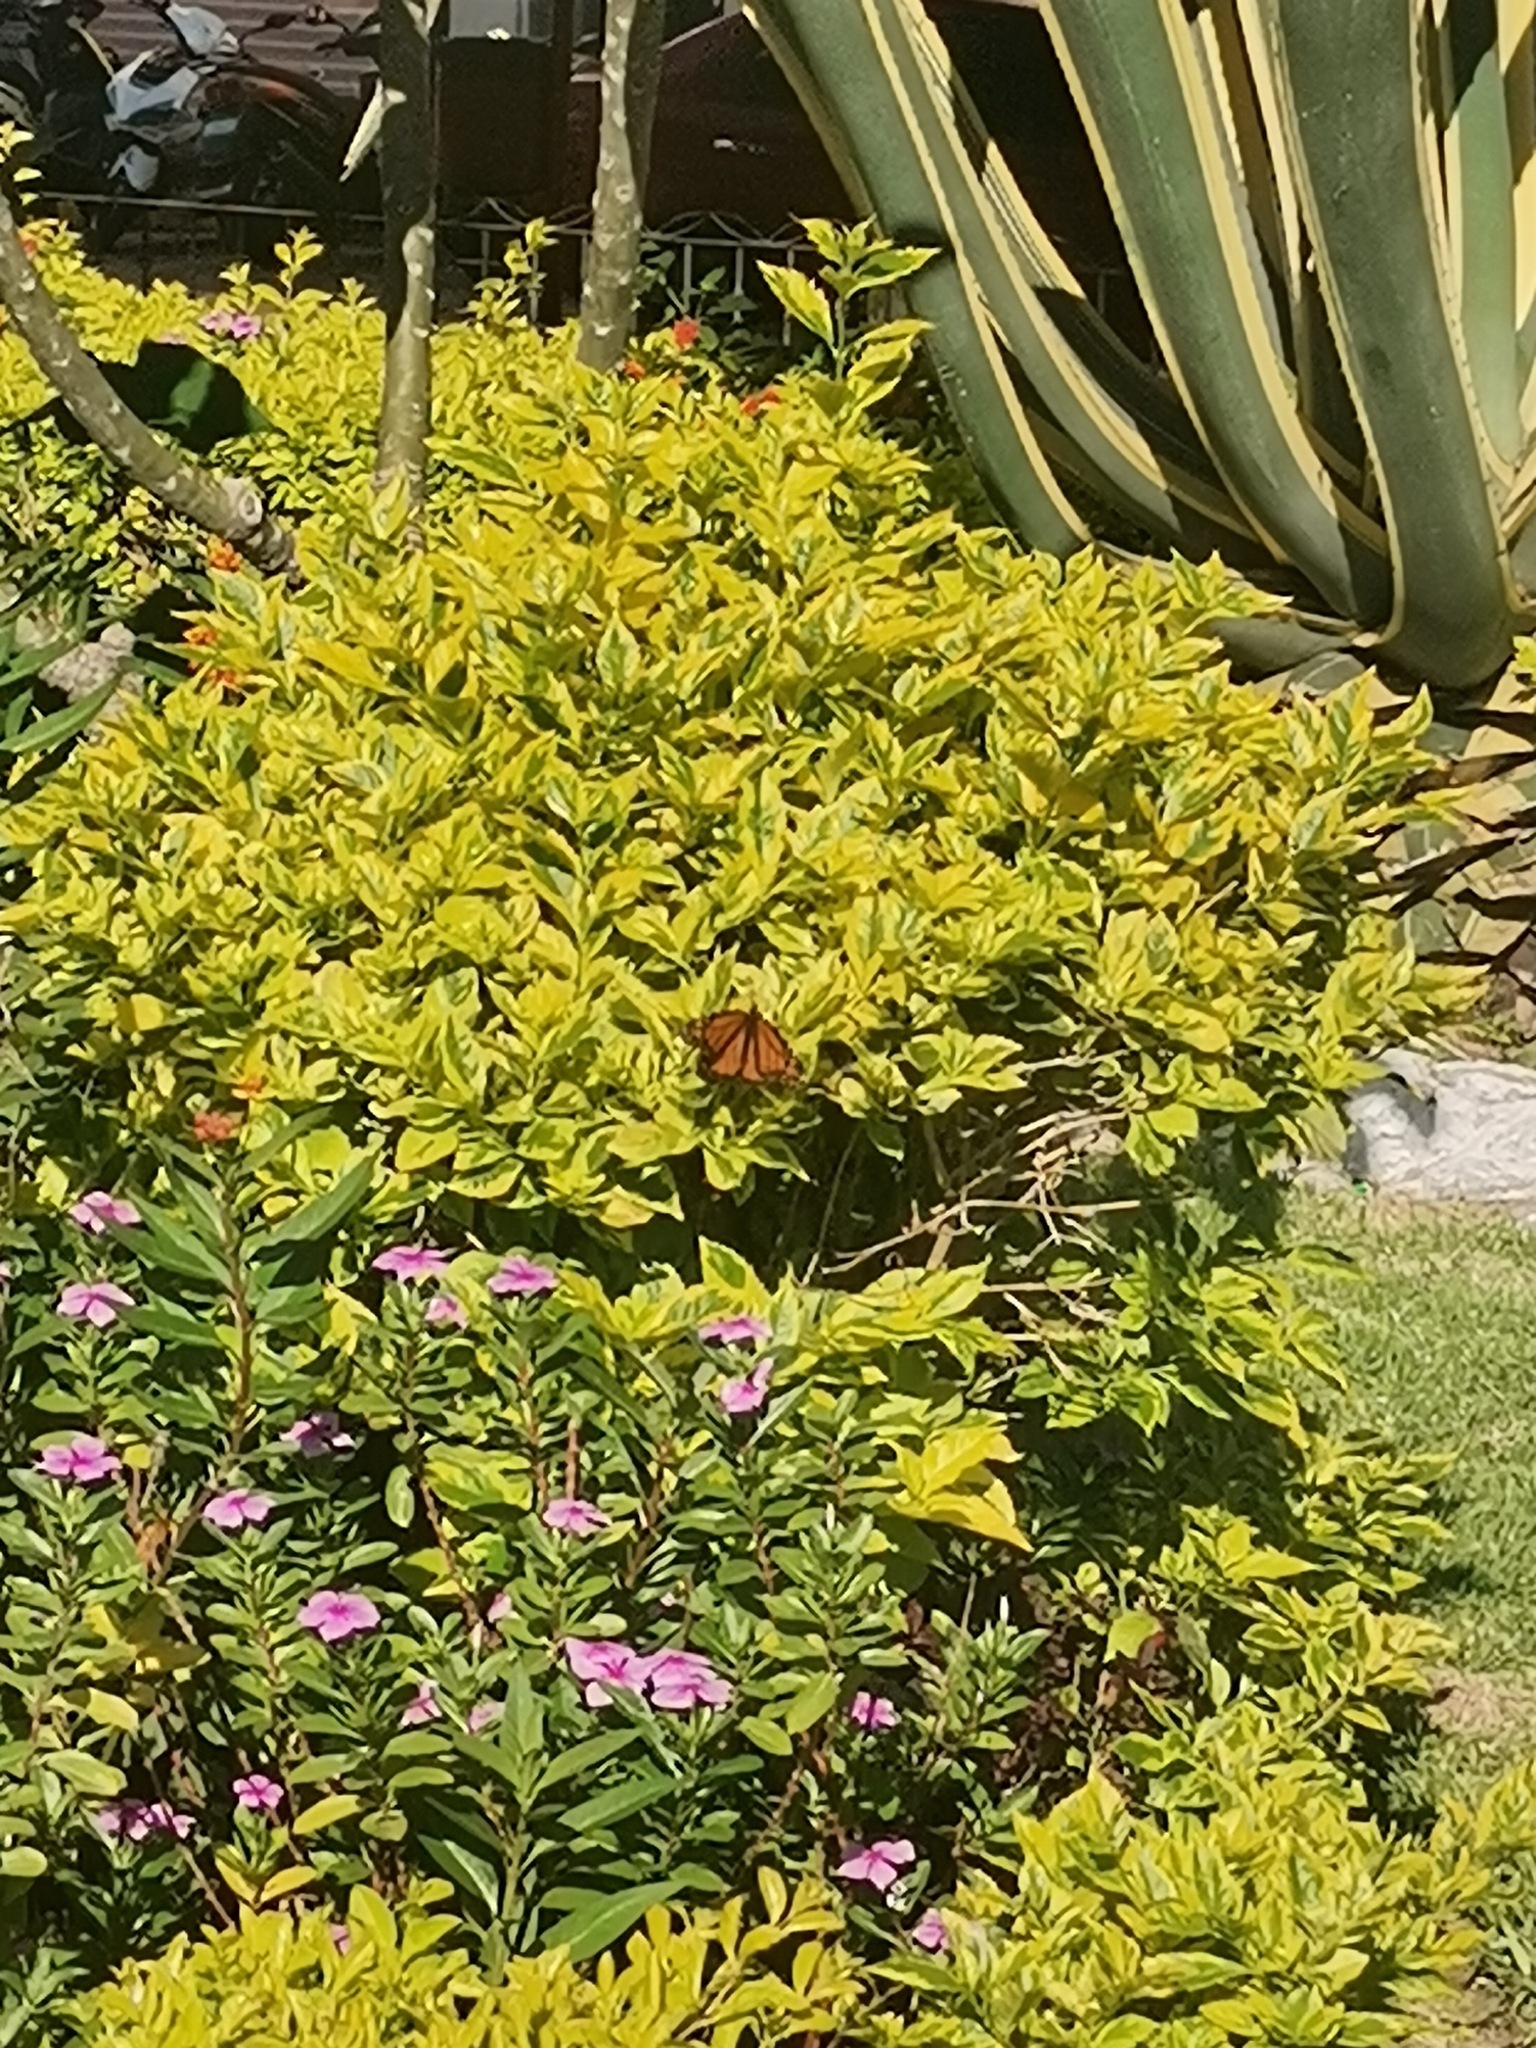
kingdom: Animalia
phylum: Arthropoda
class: Insecta
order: Lepidoptera
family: Nymphalidae
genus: Danaus
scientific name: Danaus plexippus
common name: Monarch
